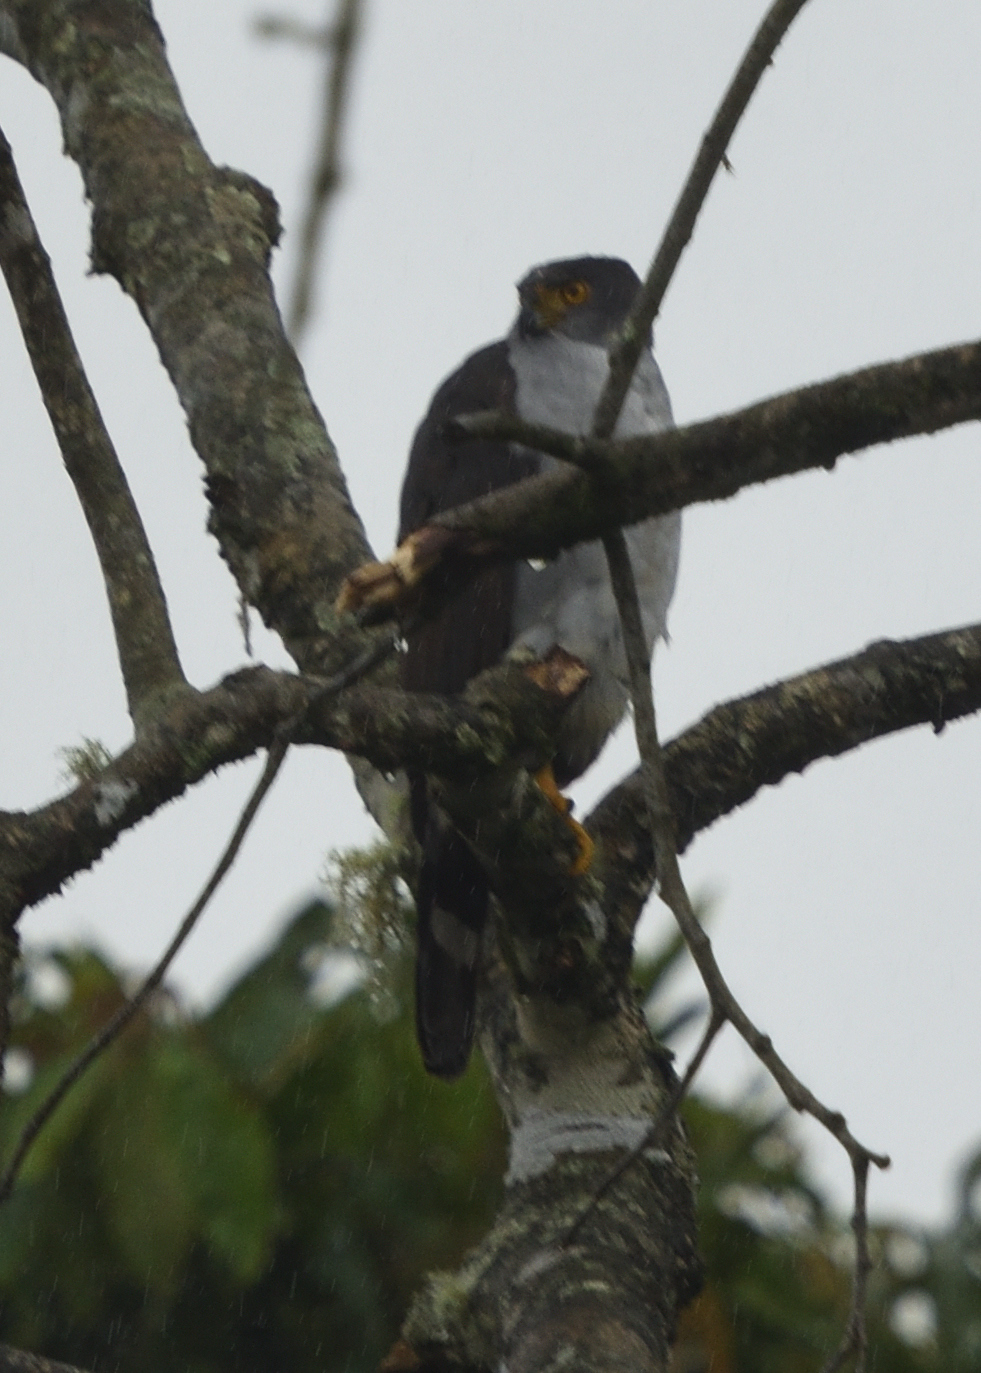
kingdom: Animalia
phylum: Chordata
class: Aves
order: Accipitriformes
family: Accipitridae
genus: Accipiter
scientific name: Accipiter bicolor
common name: Bicolored hawk
